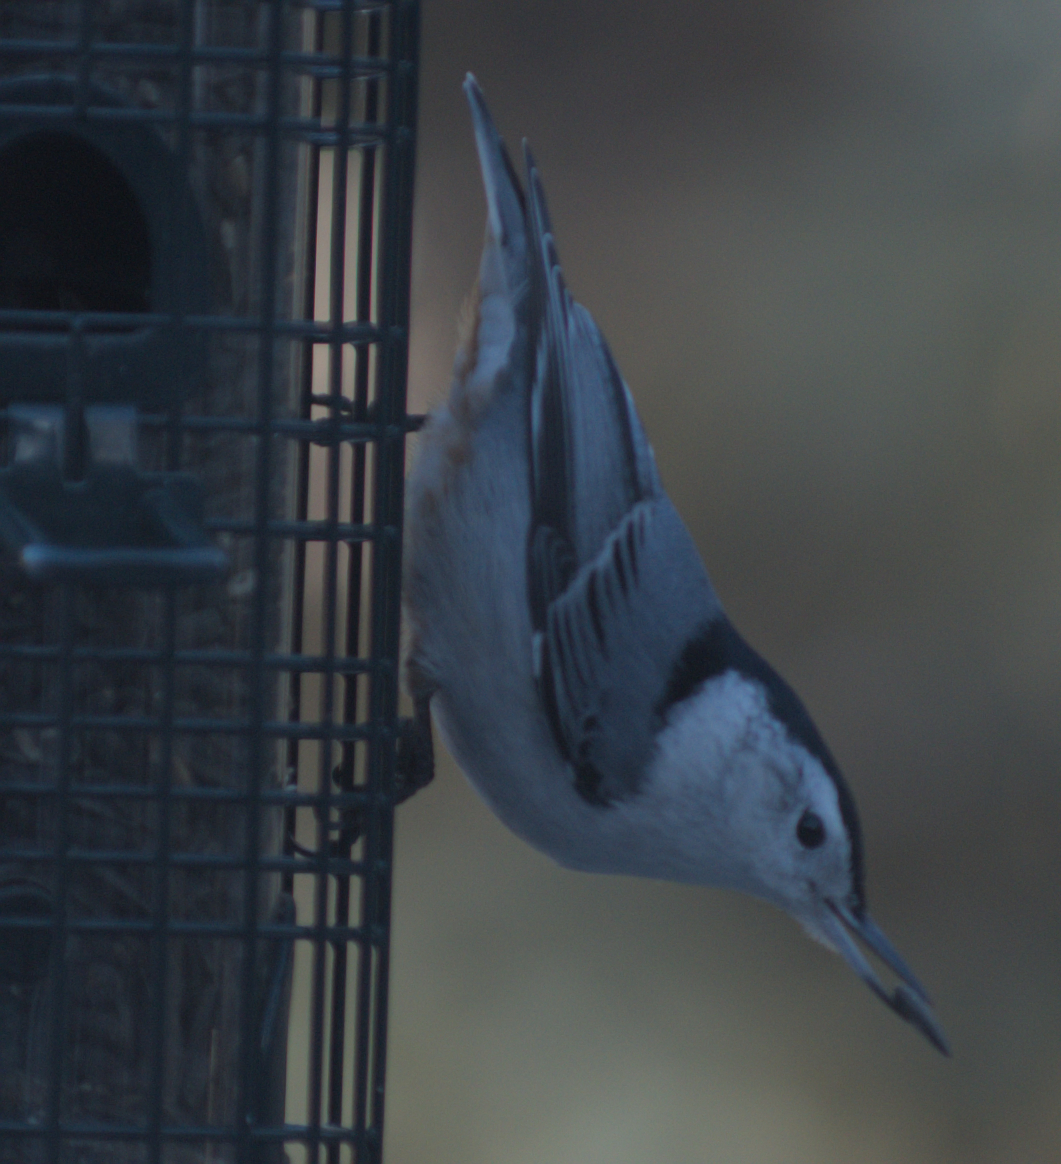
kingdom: Animalia
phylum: Chordata
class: Aves
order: Passeriformes
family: Sittidae
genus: Sitta
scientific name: Sitta carolinensis
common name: White-breasted nuthatch
